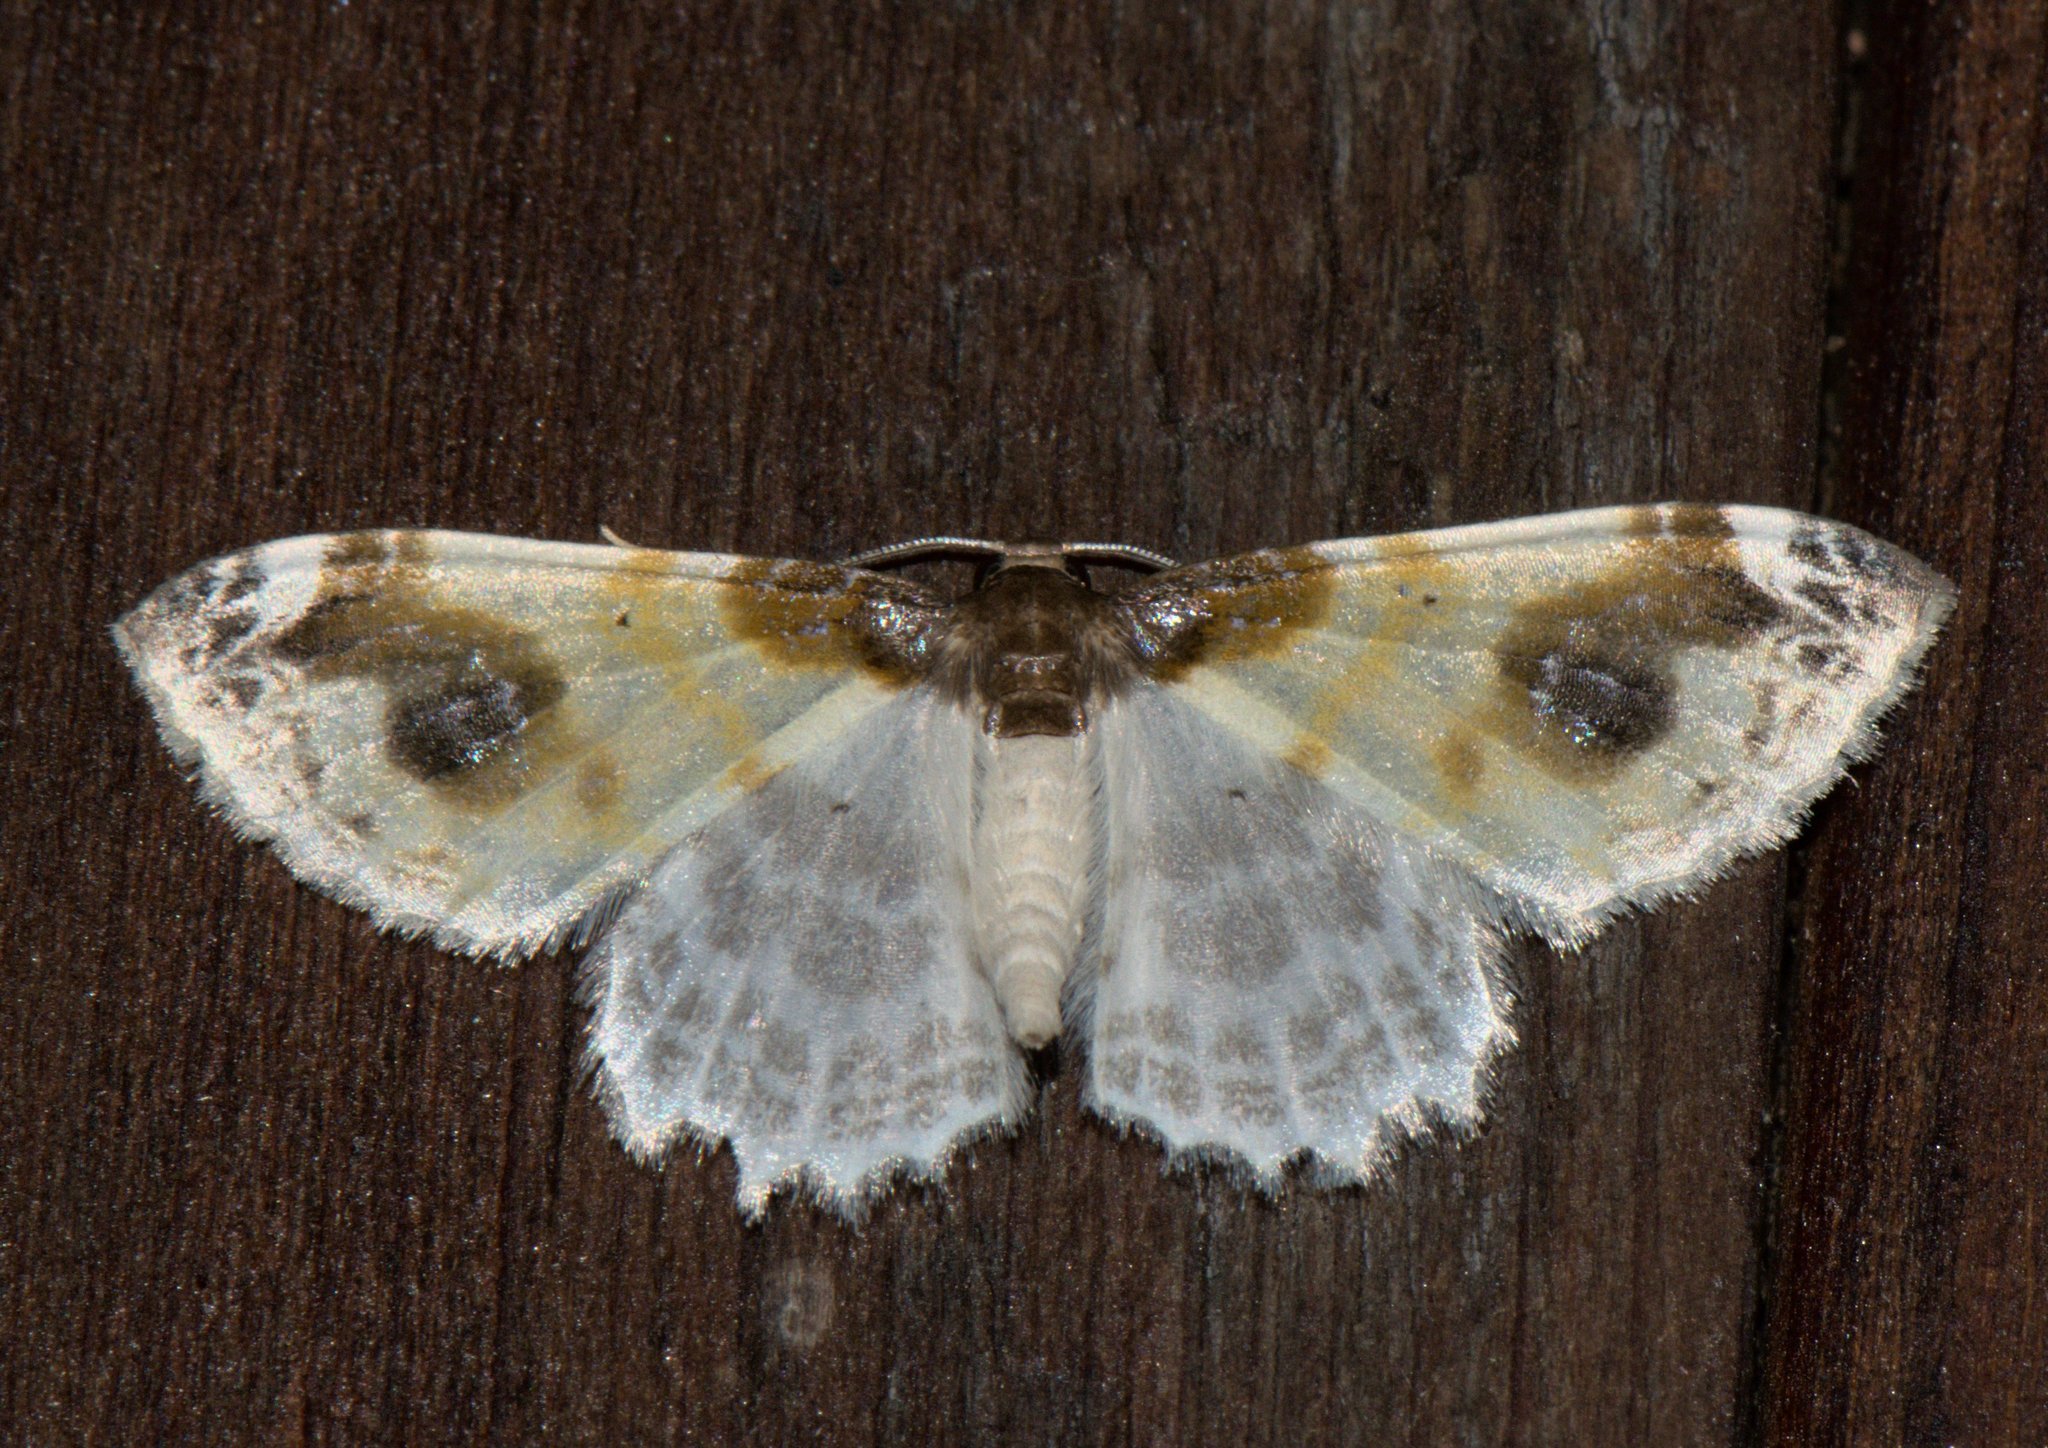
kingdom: Animalia
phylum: Arthropoda
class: Insecta
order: Lepidoptera
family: Geometridae
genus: Agnibesa
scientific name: Agnibesa pictaria
